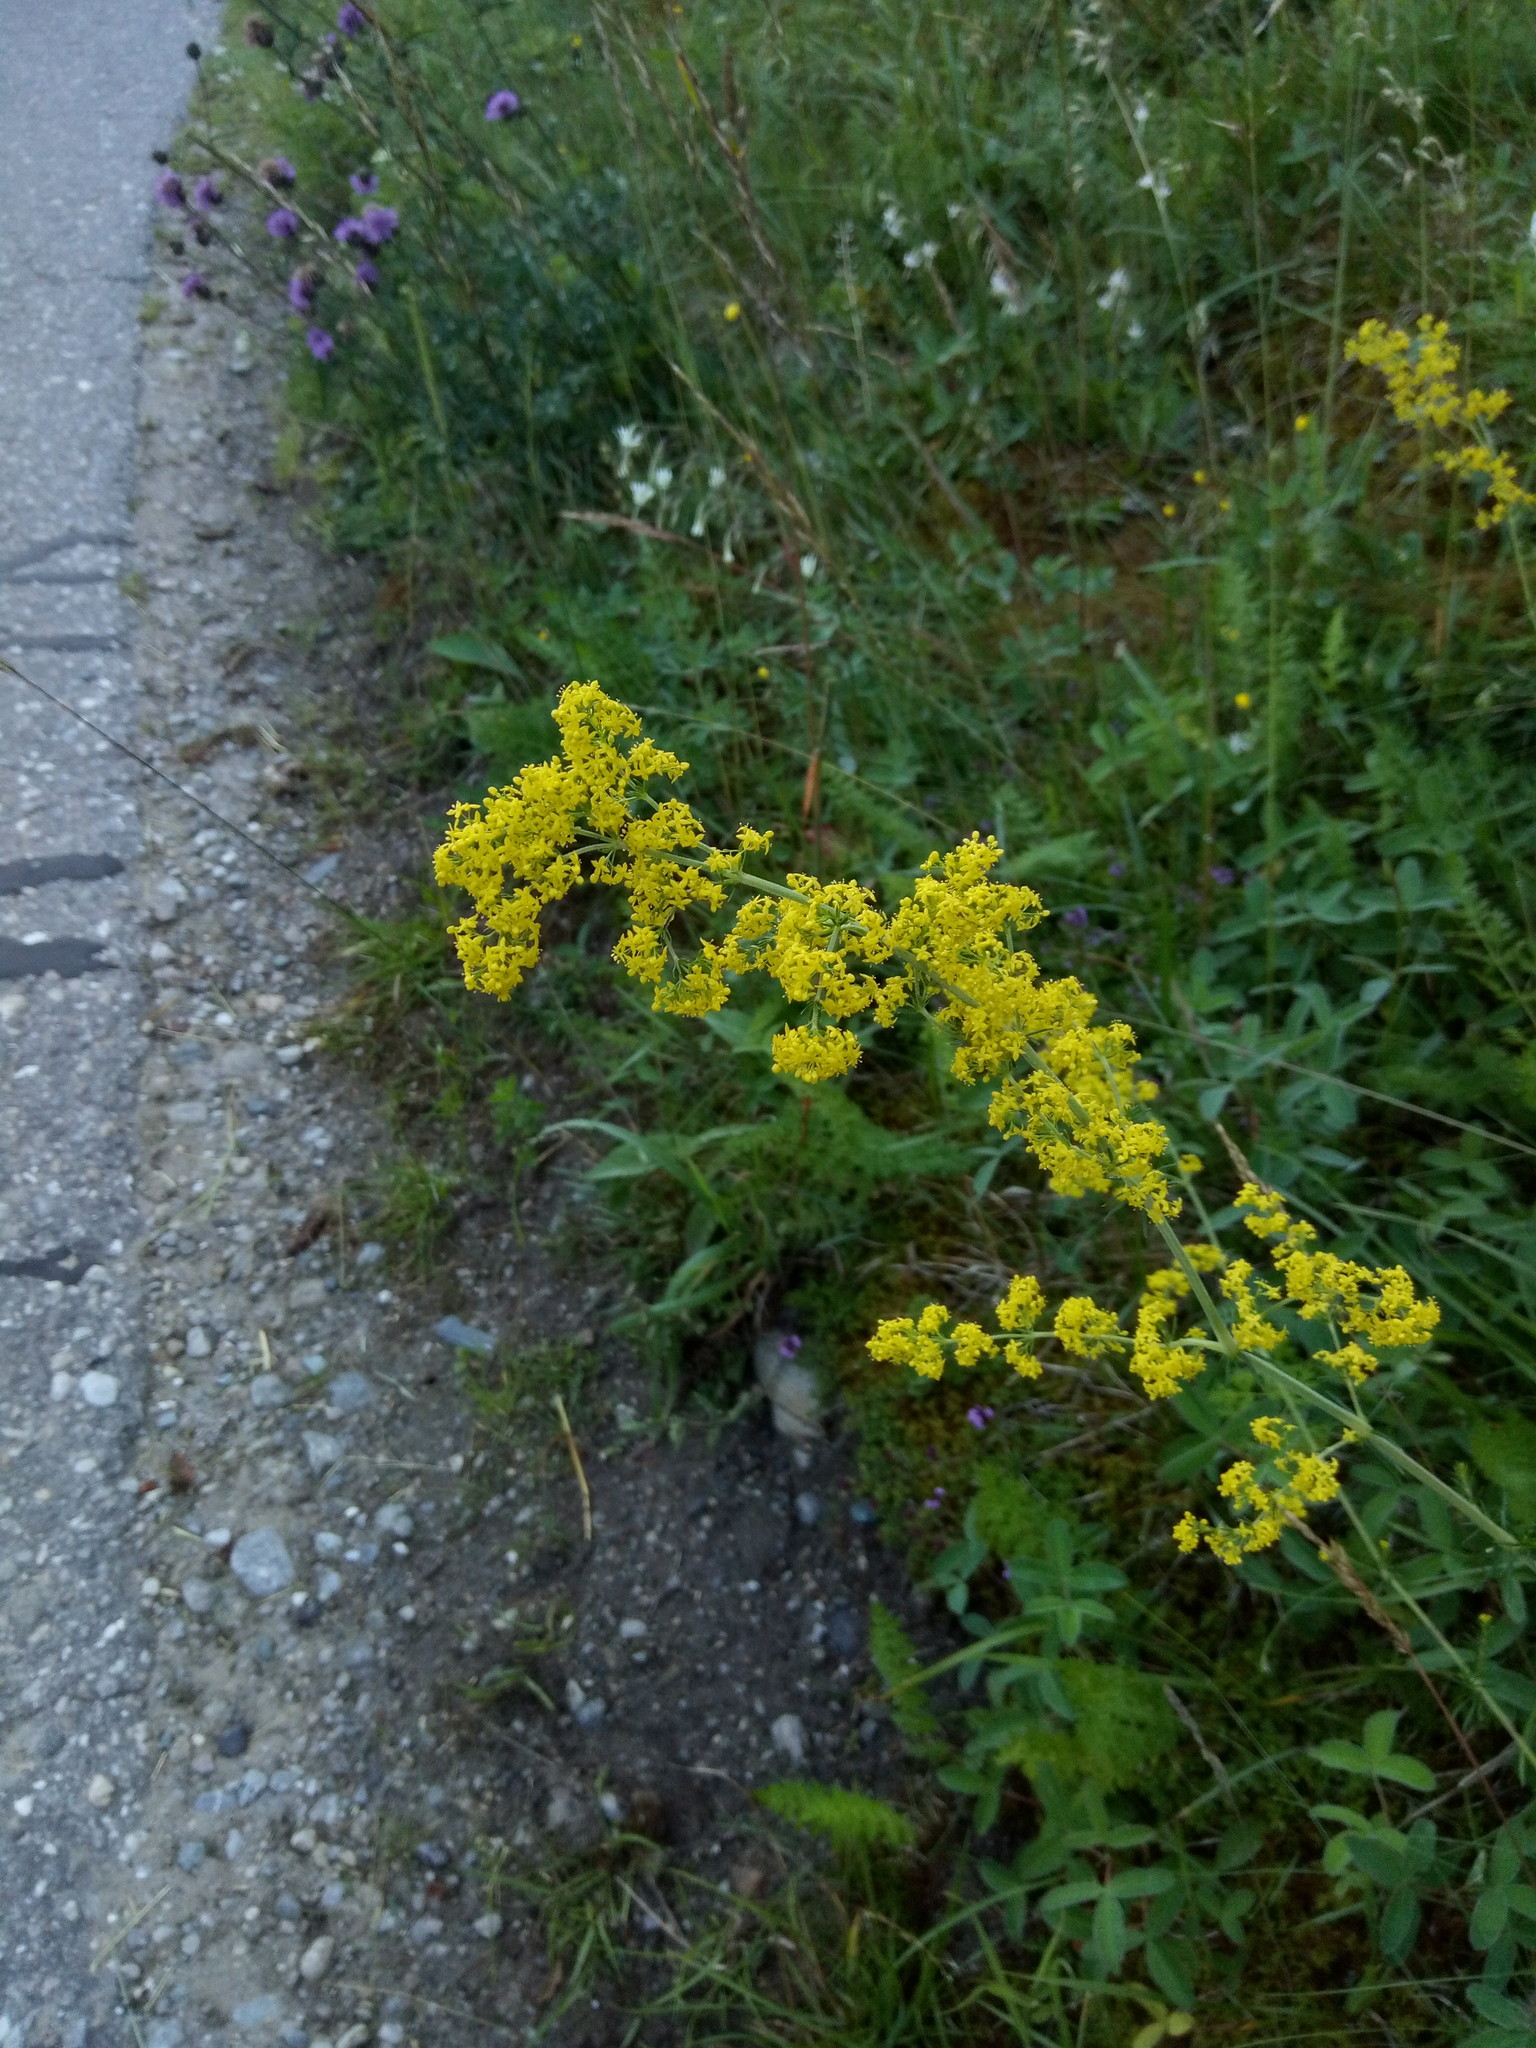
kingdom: Plantae
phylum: Tracheophyta
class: Magnoliopsida
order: Gentianales
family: Rubiaceae
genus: Galium
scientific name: Galium verum
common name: Lady's bedstraw
